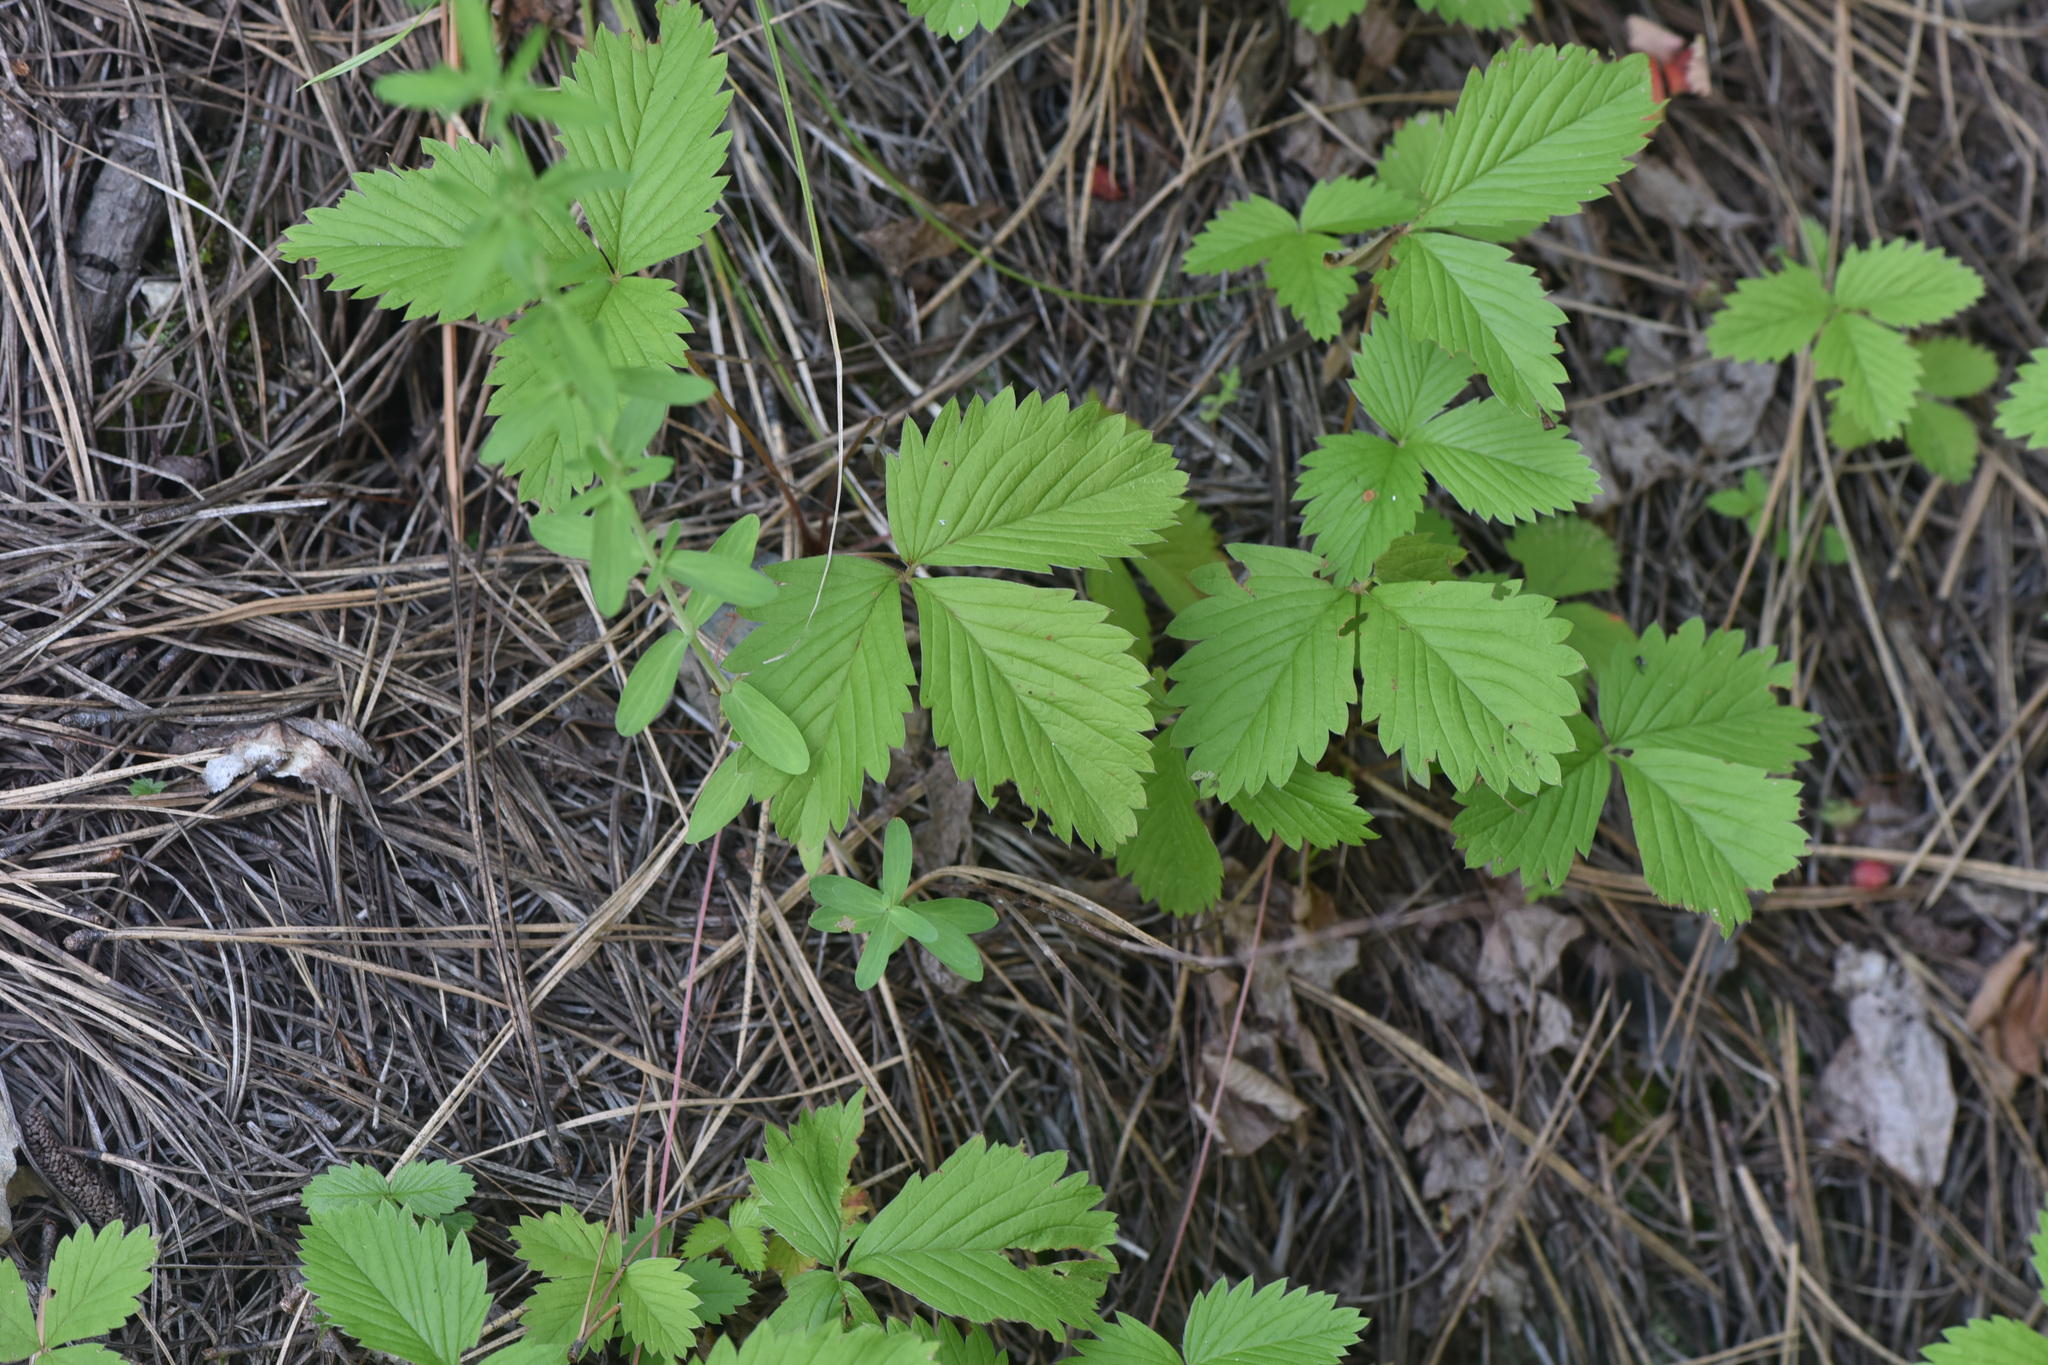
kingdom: Plantae
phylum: Tracheophyta
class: Magnoliopsida
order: Rosales
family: Rosaceae
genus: Fragaria
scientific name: Fragaria vesca
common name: Wild strawberry
